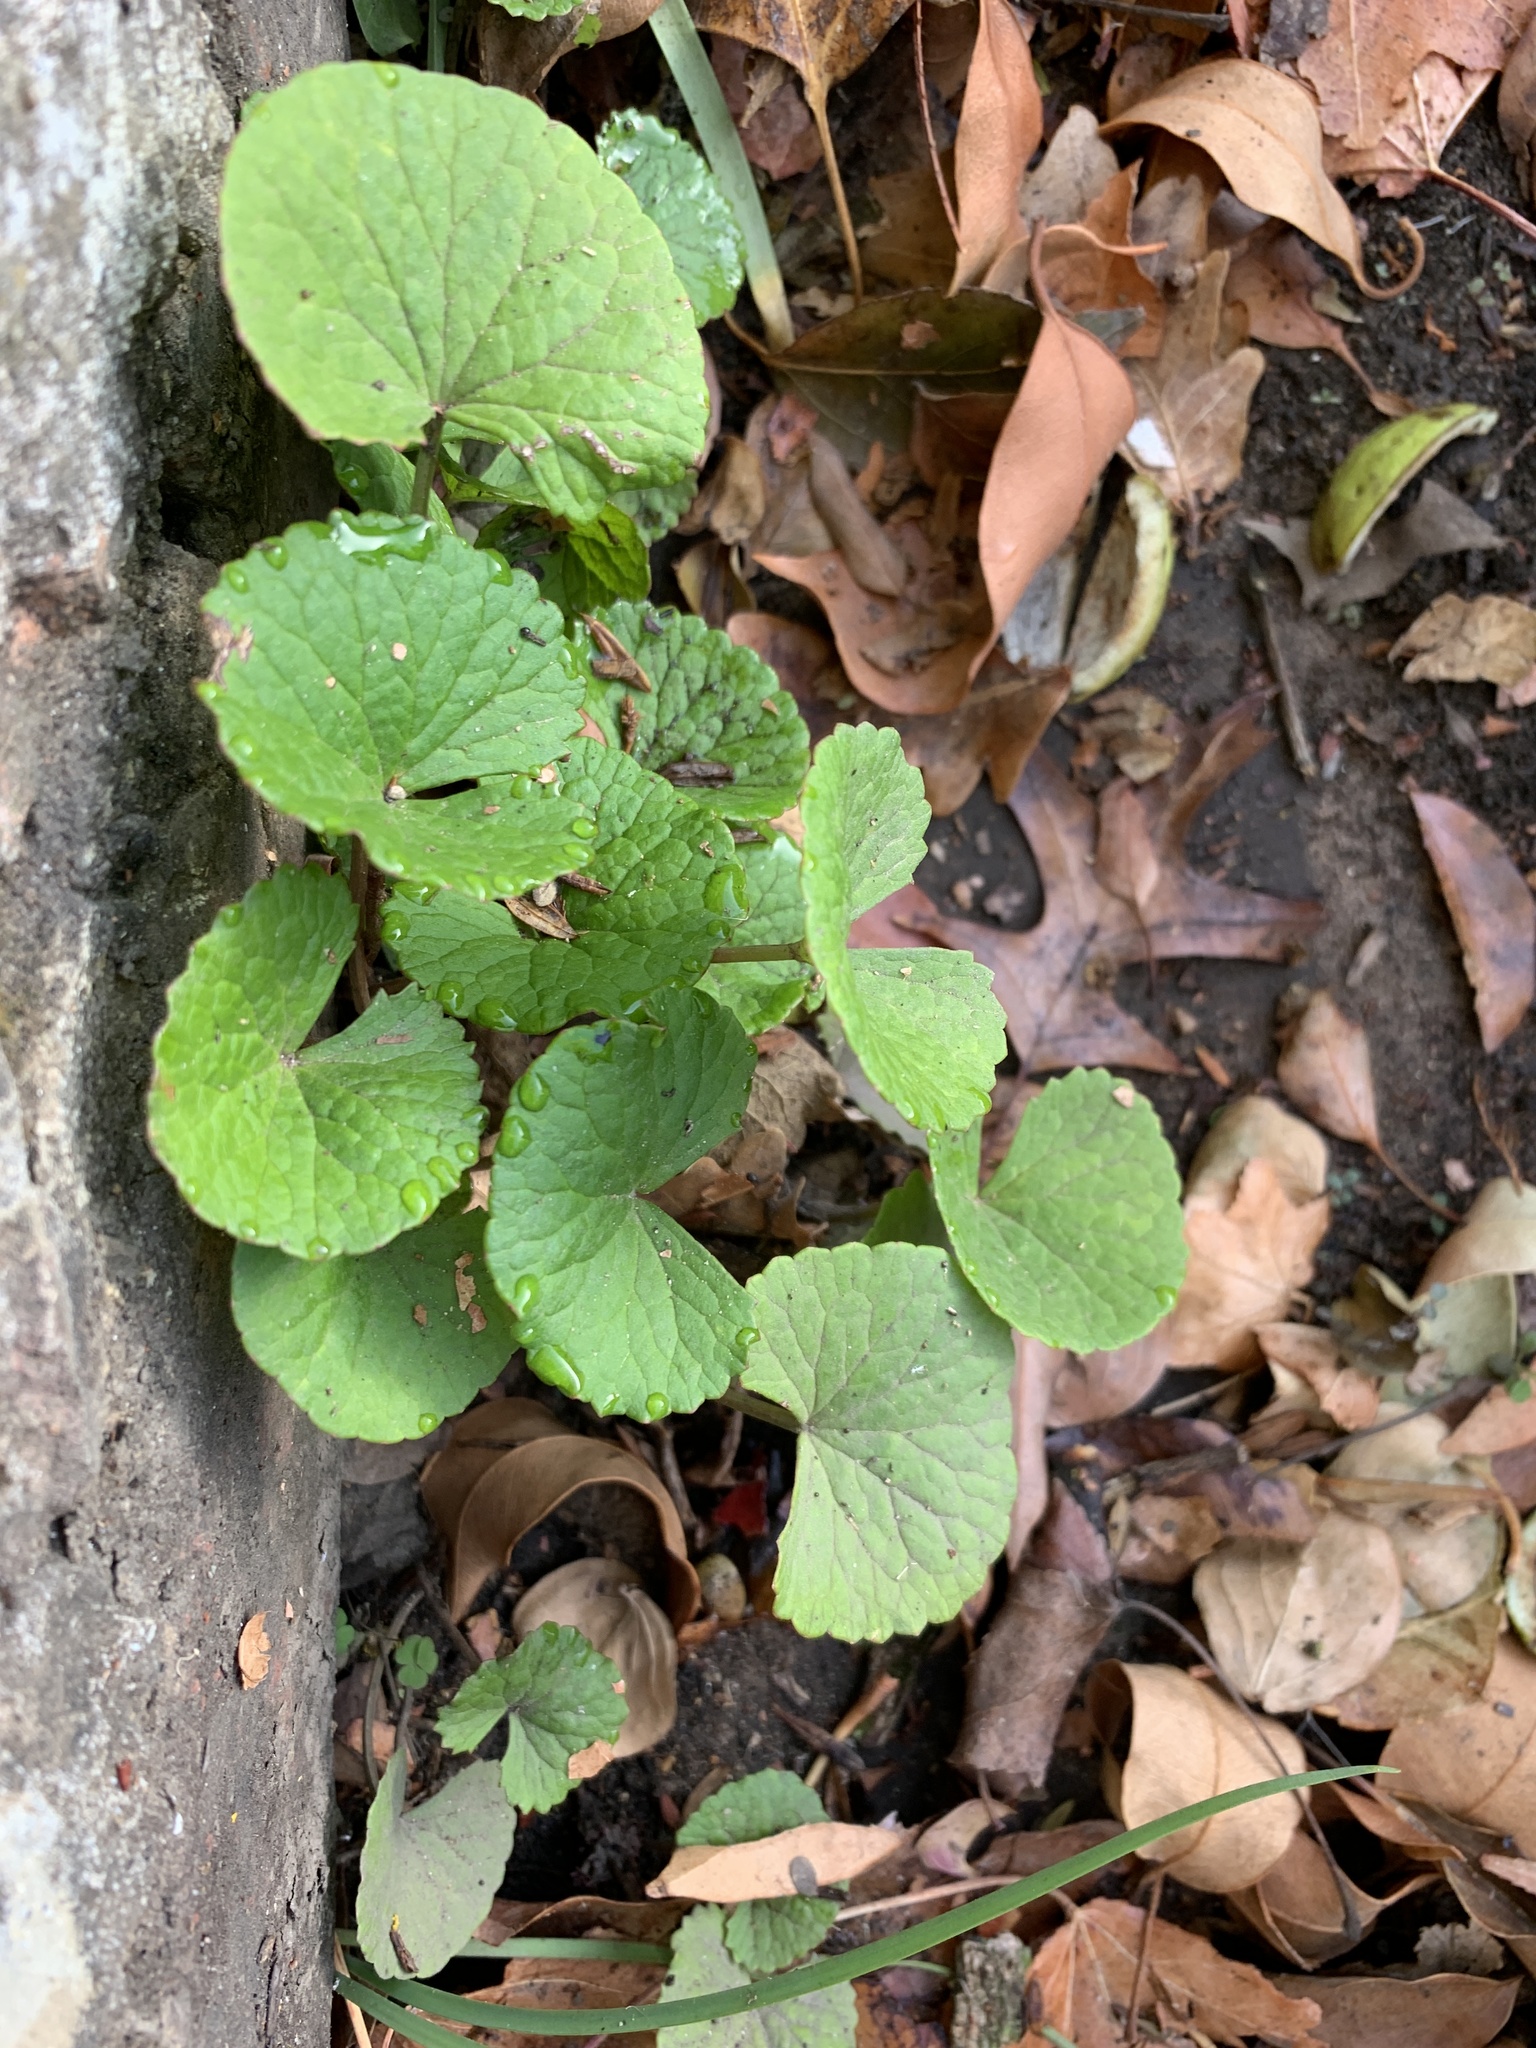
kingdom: Plantae
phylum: Tracheophyta
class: Magnoliopsida
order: Apiales
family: Apiaceae
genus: Centella
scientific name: Centella asiatica
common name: Spadeleaf
